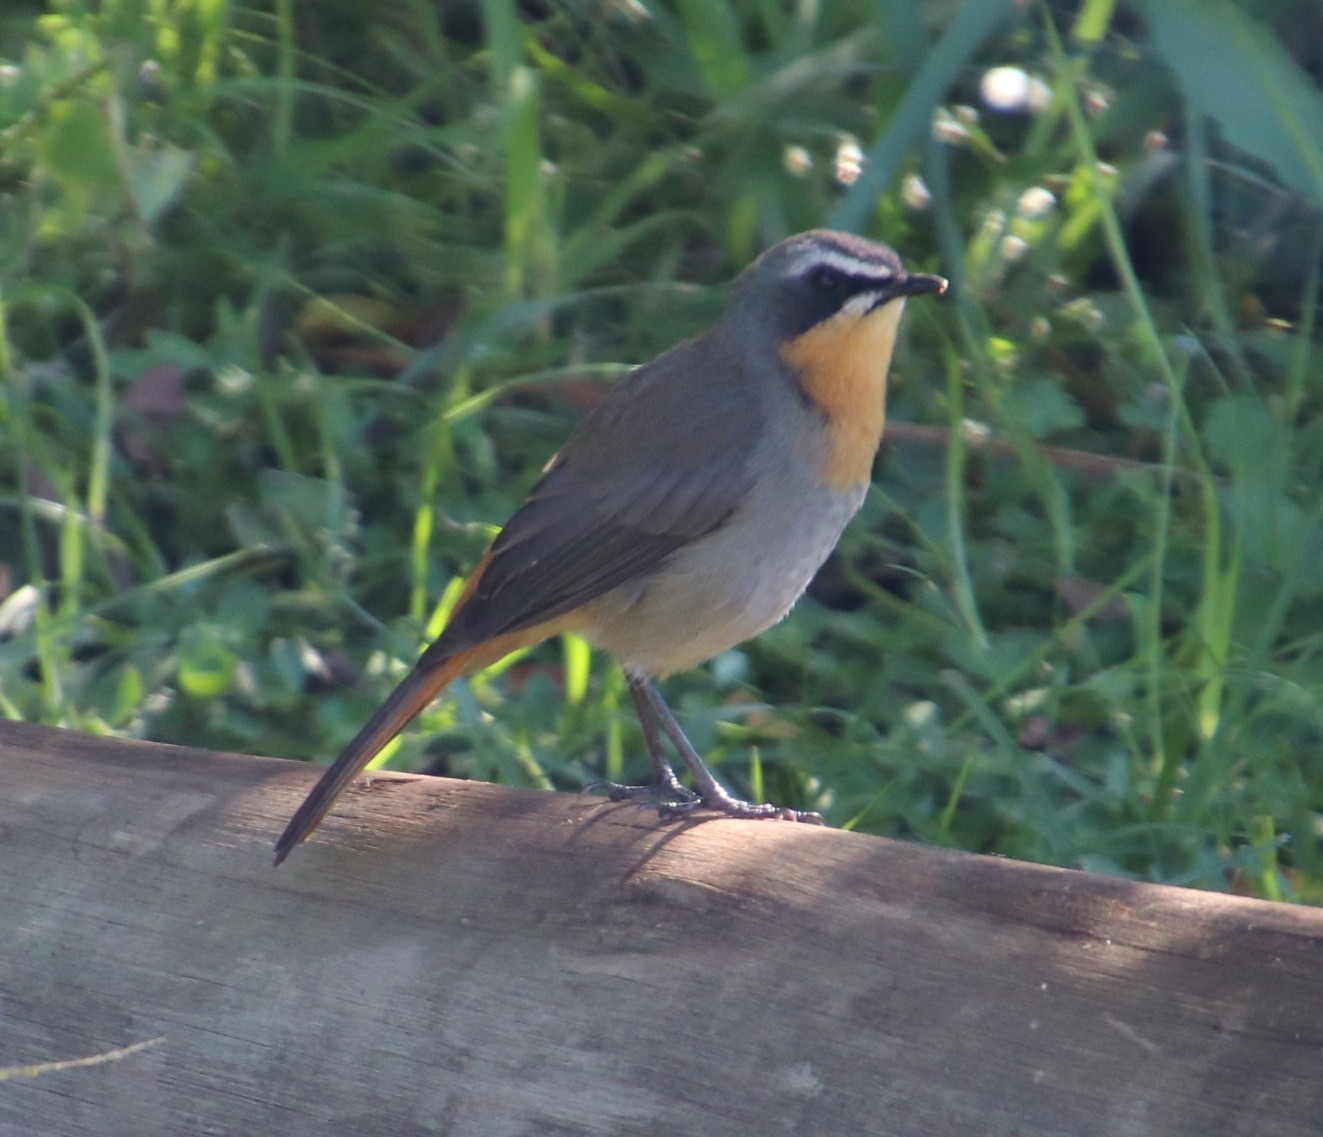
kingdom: Animalia
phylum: Chordata
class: Aves
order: Passeriformes
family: Muscicapidae
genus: Cossypha
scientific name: Cossypha caffra
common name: Cape robin-chat
